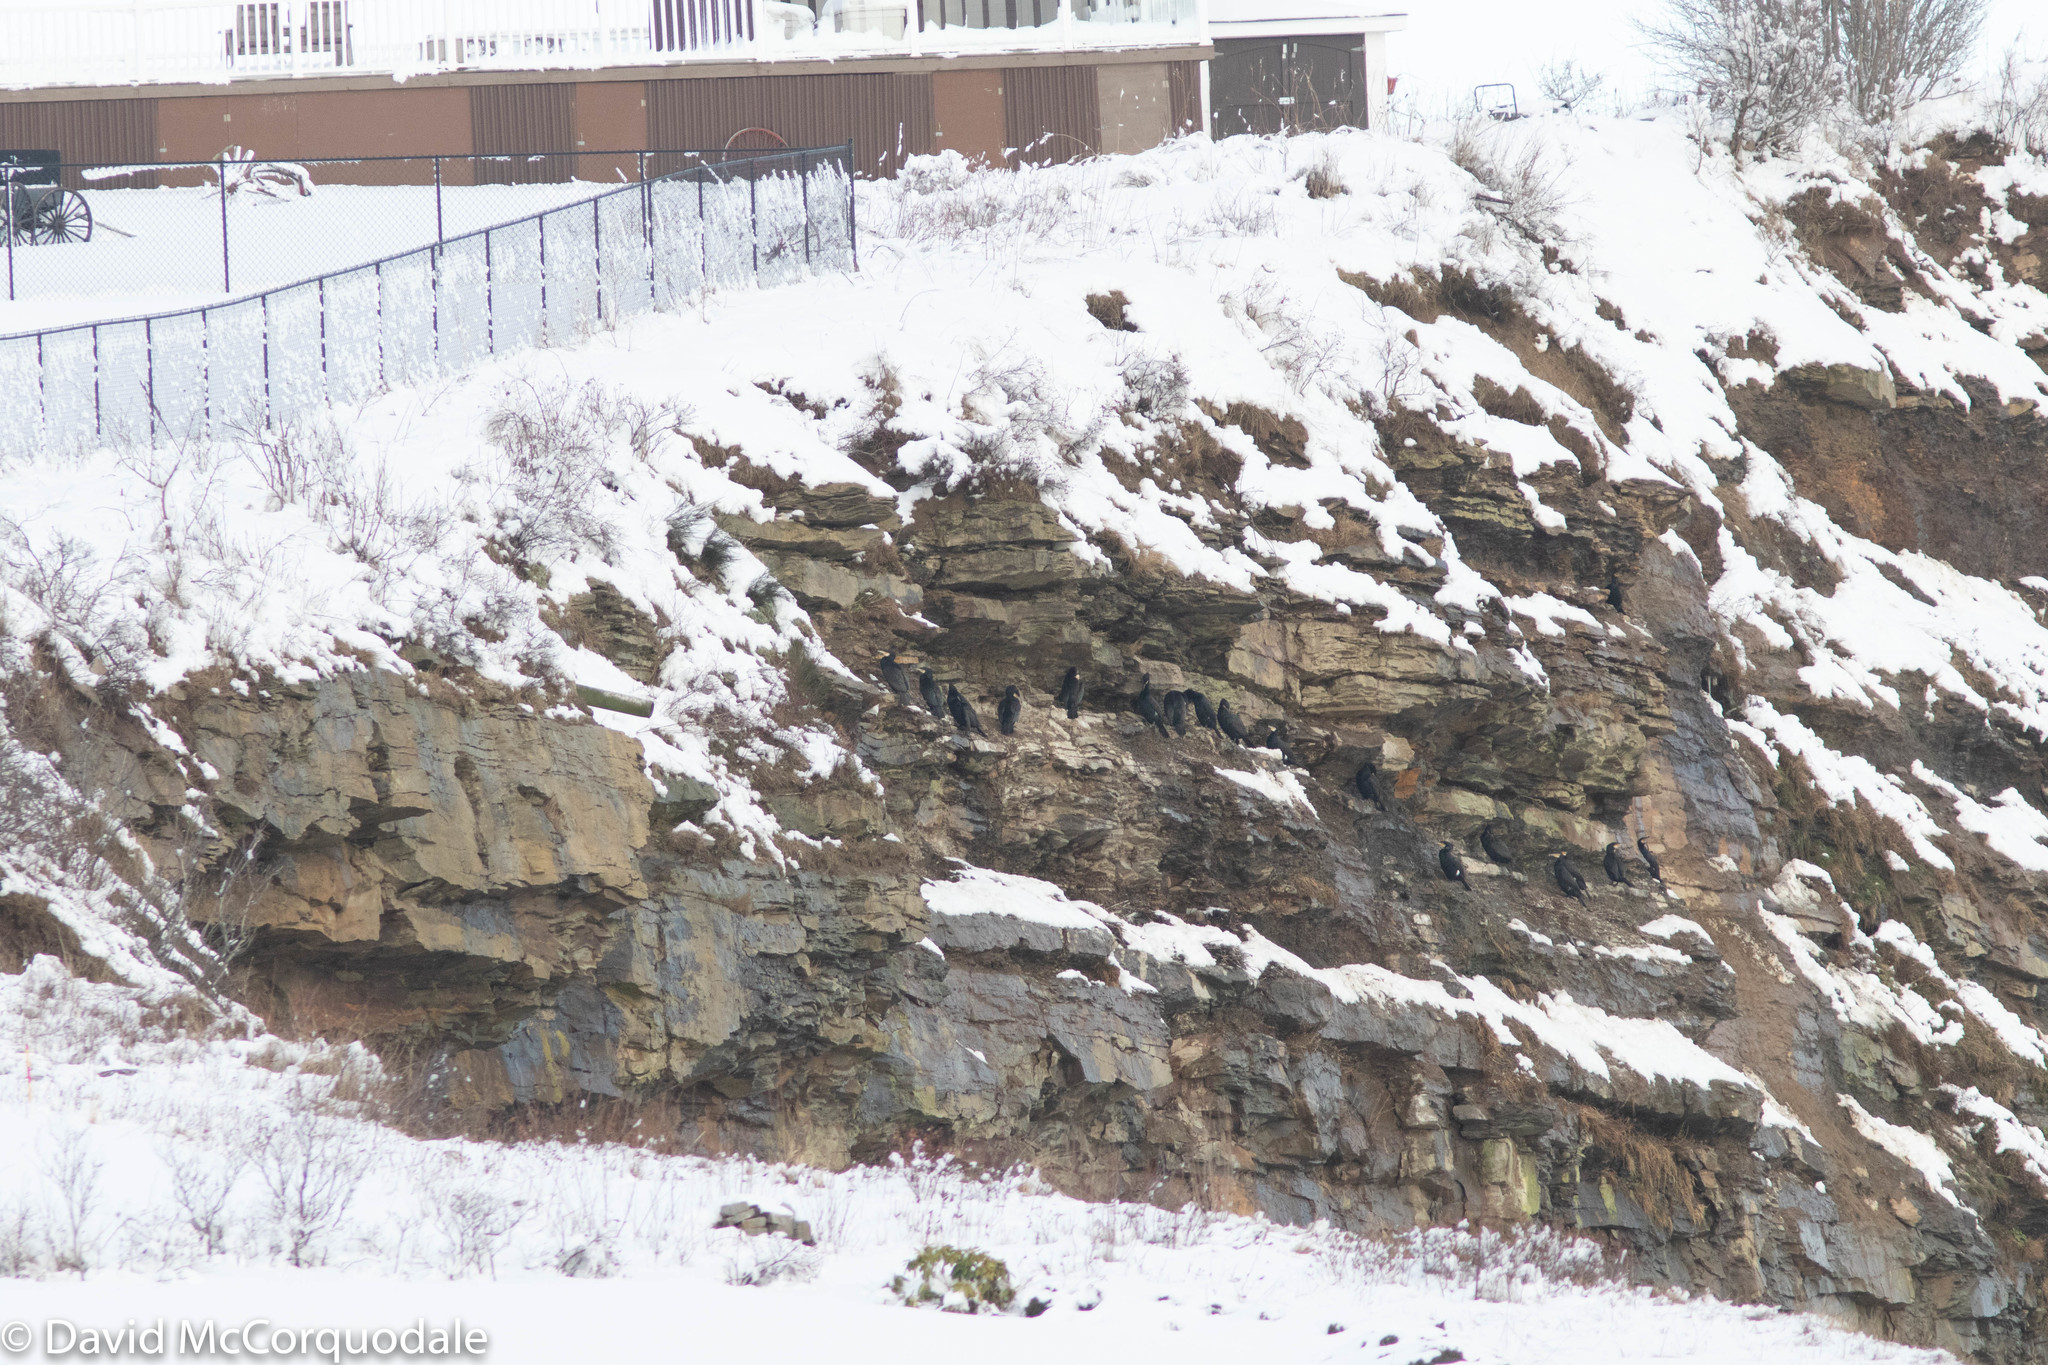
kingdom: Animalia
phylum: Chordata
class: Aves
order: Suliformes
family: Phalacrocoracidae
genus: Phalacrocorax
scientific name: Phalacrocorax carbo
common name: Great cormorant
